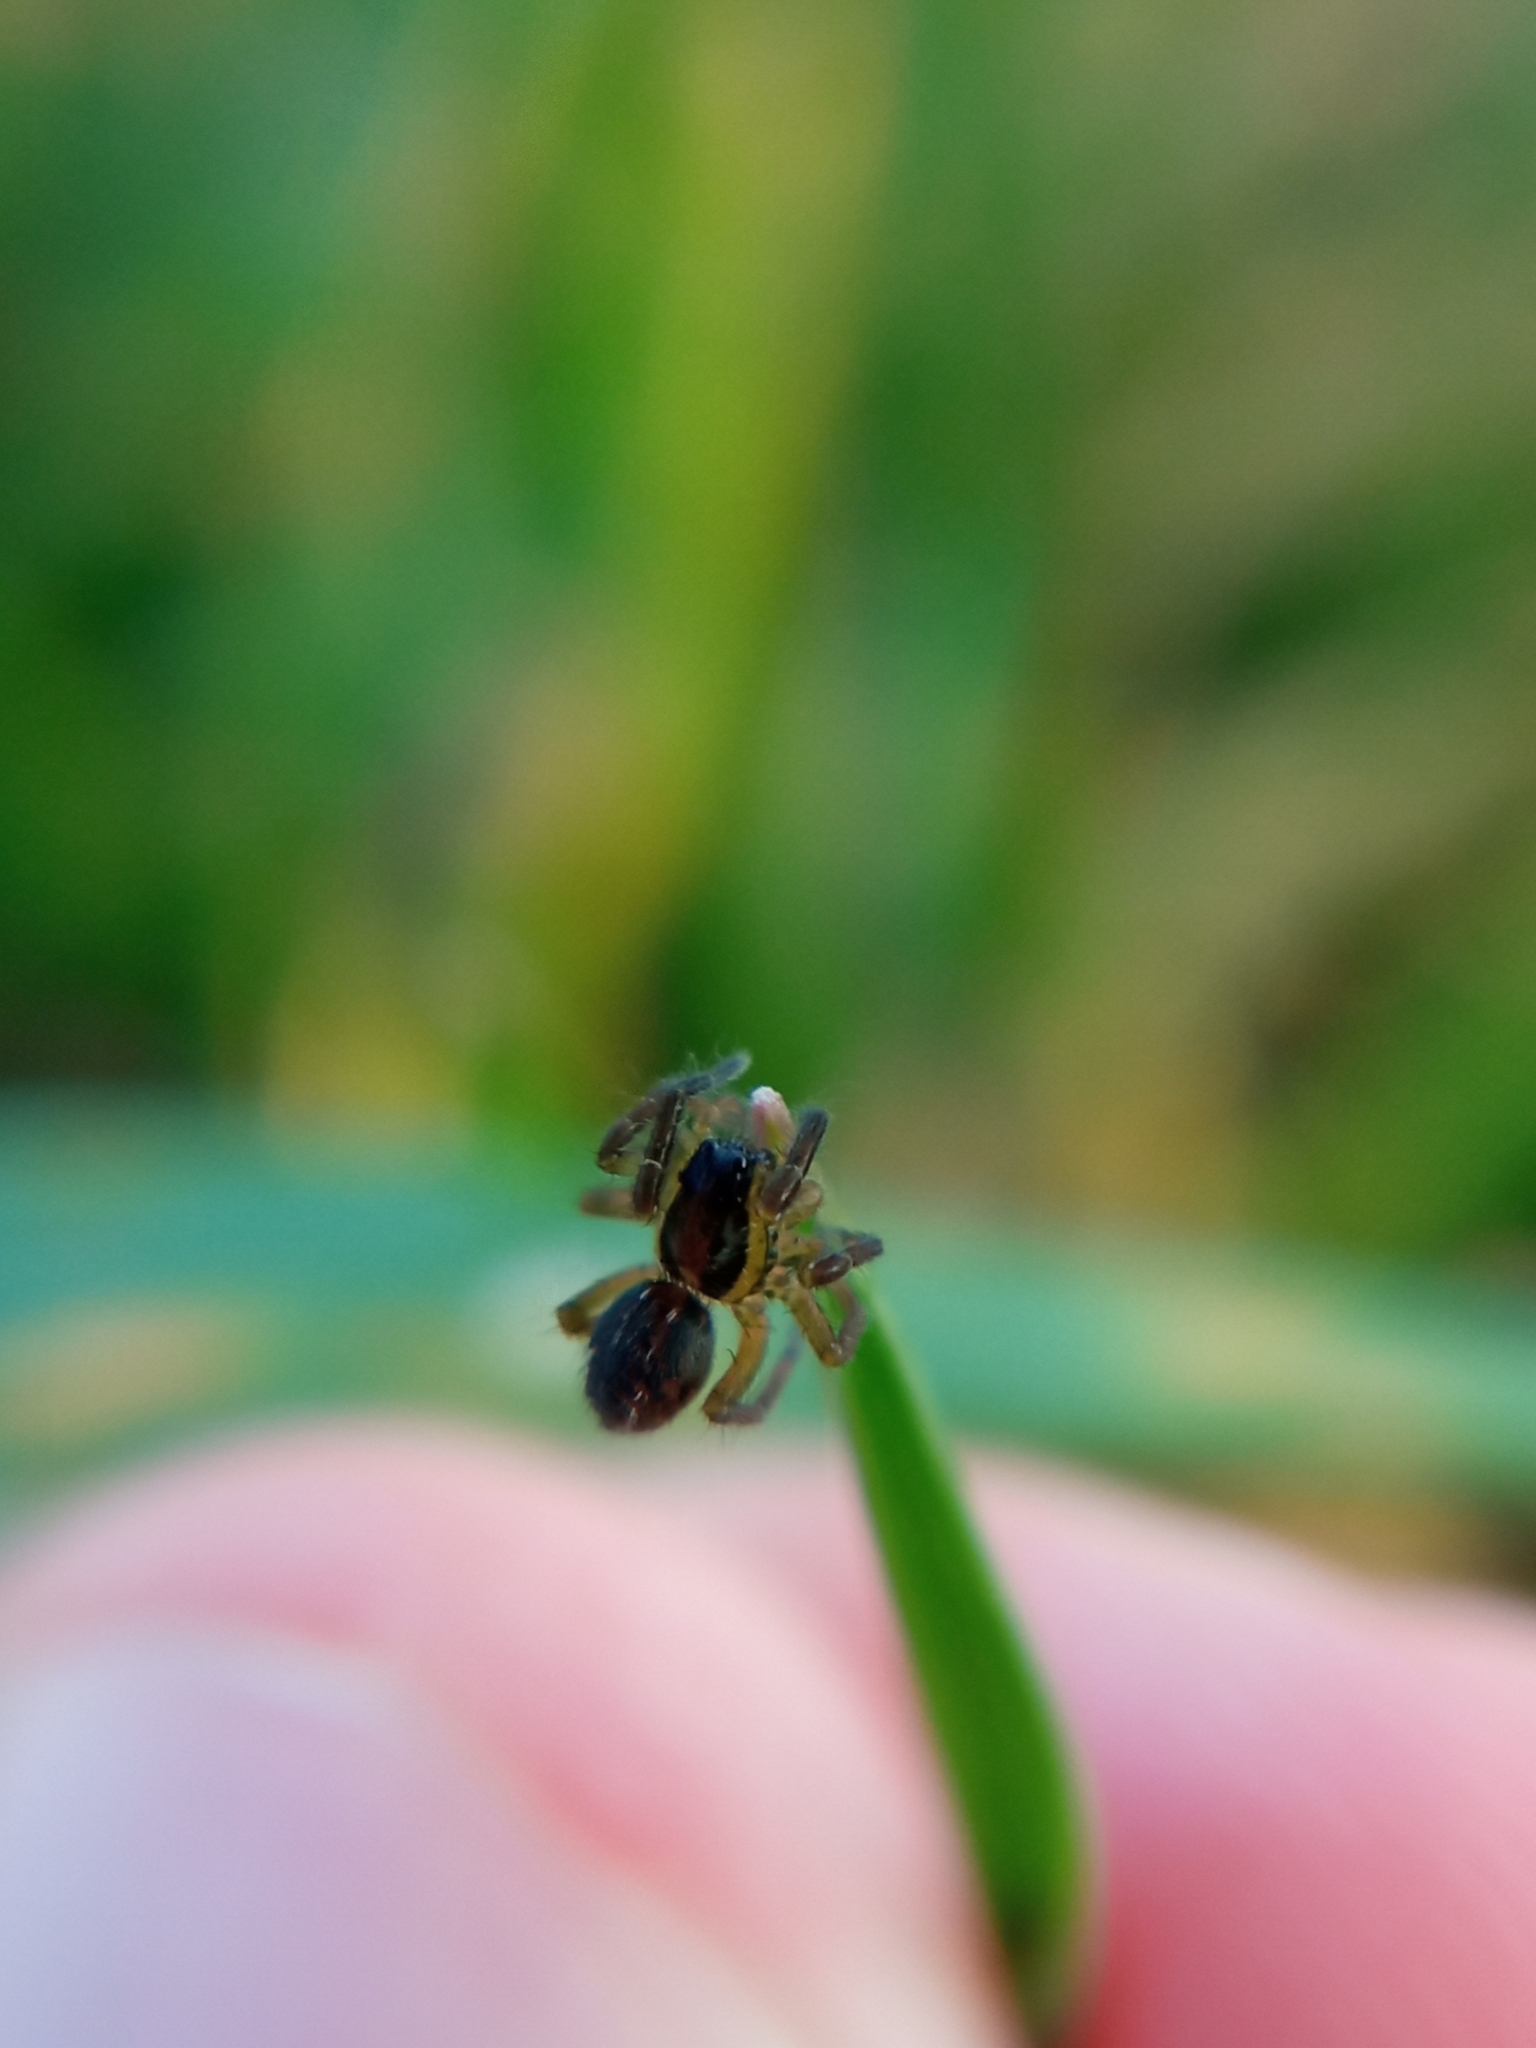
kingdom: Animalia
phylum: Arthropoda
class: Arachnida
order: Araneae
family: Lycosidae
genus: Hogna
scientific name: Hogna radiata
